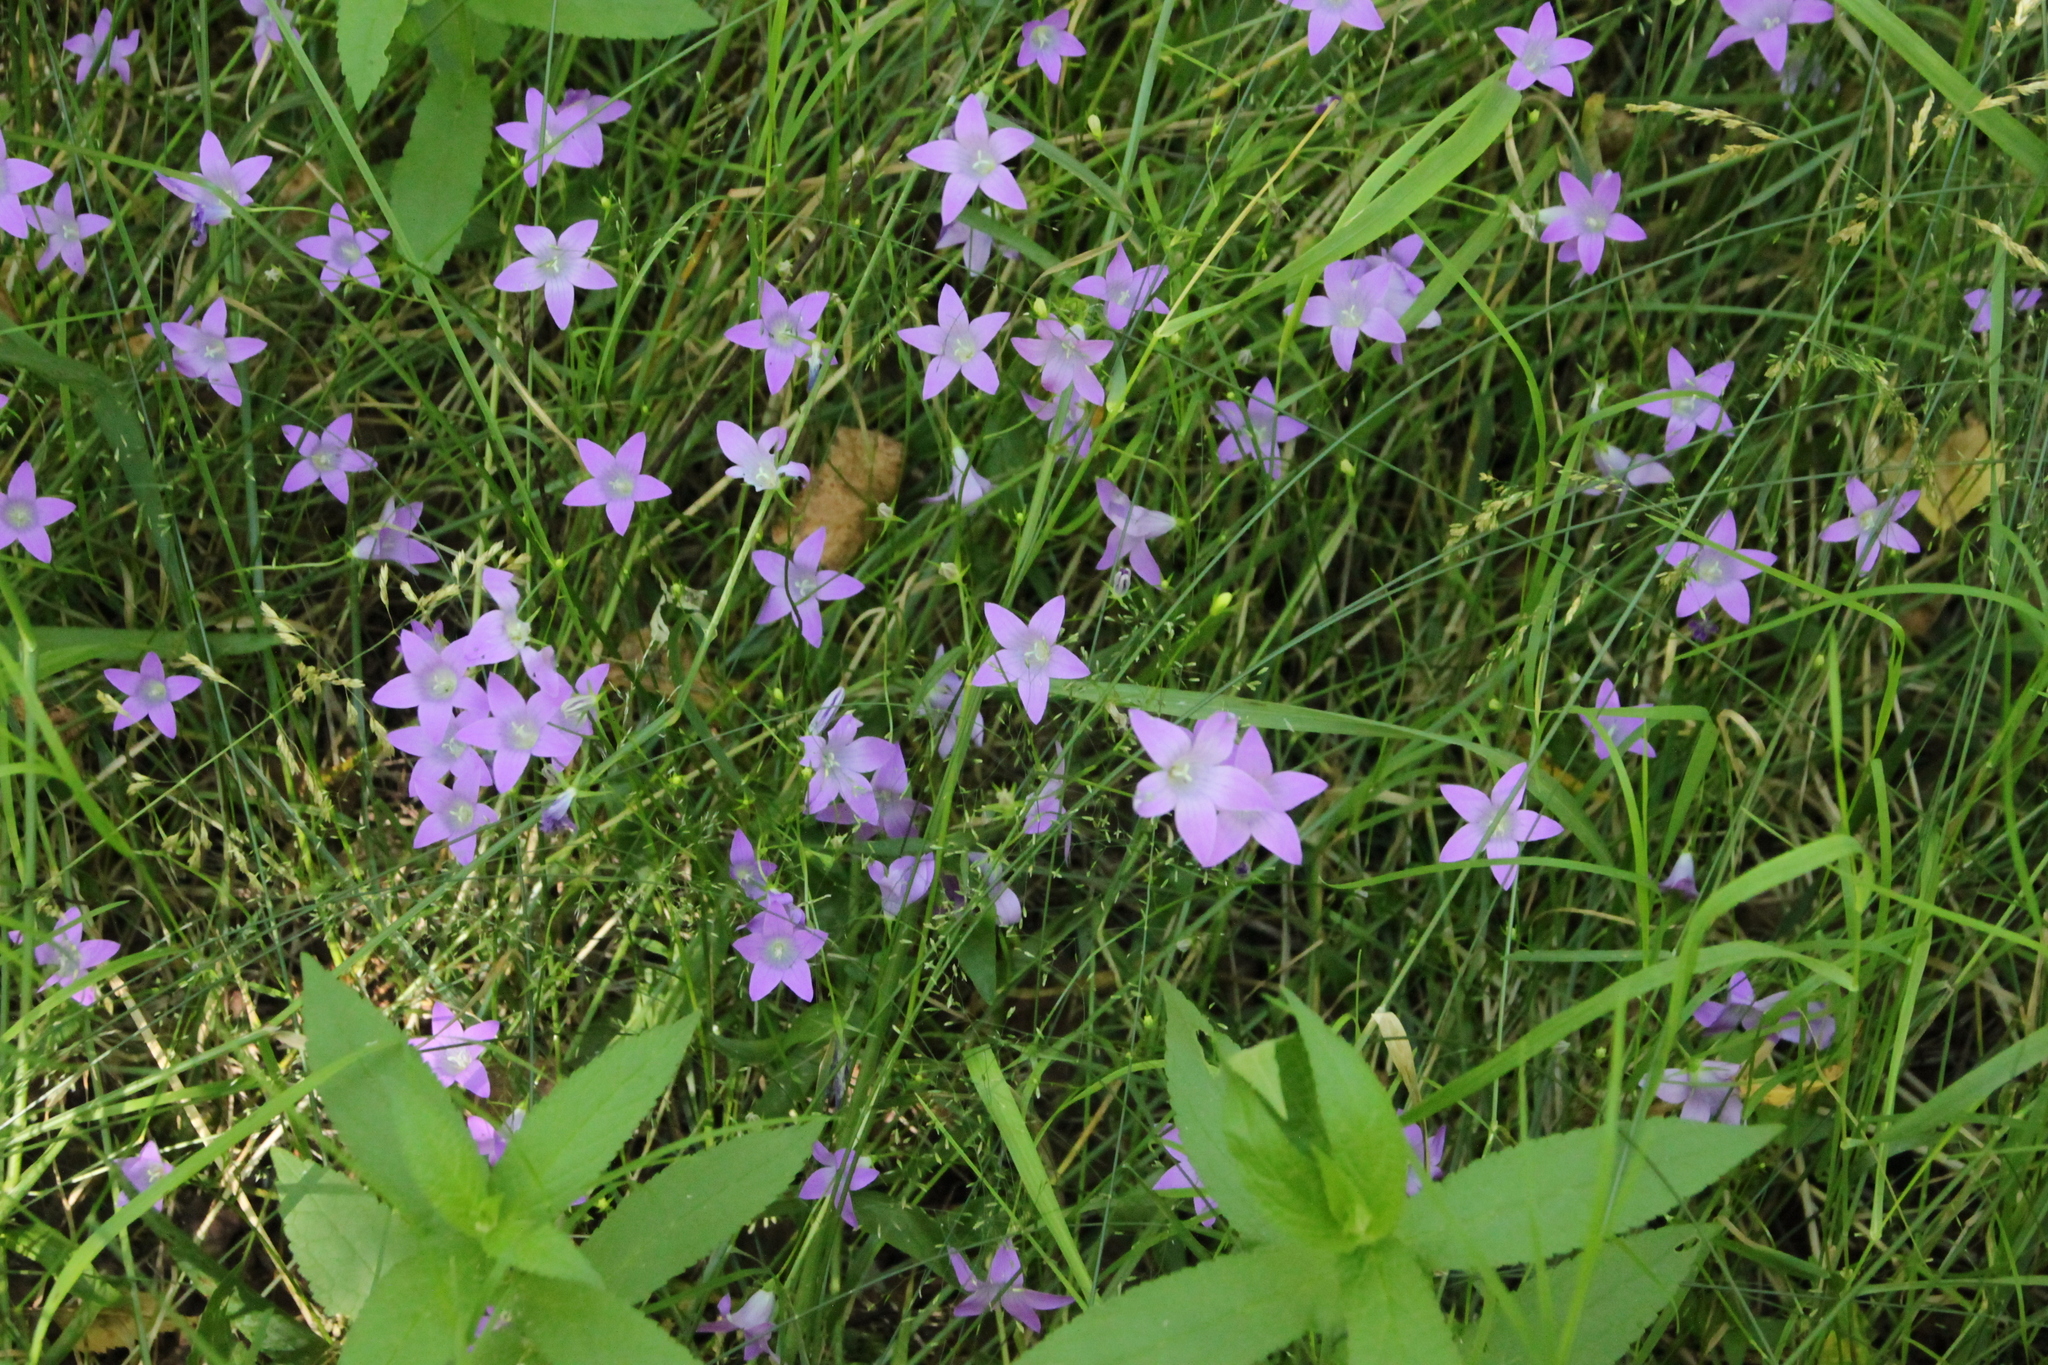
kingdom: Plantae
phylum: Tracheophyta
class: Magnoliopsida
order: Asterales
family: Campanulaceae
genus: Campanula
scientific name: Campanula patula
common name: Spreading bellflower
